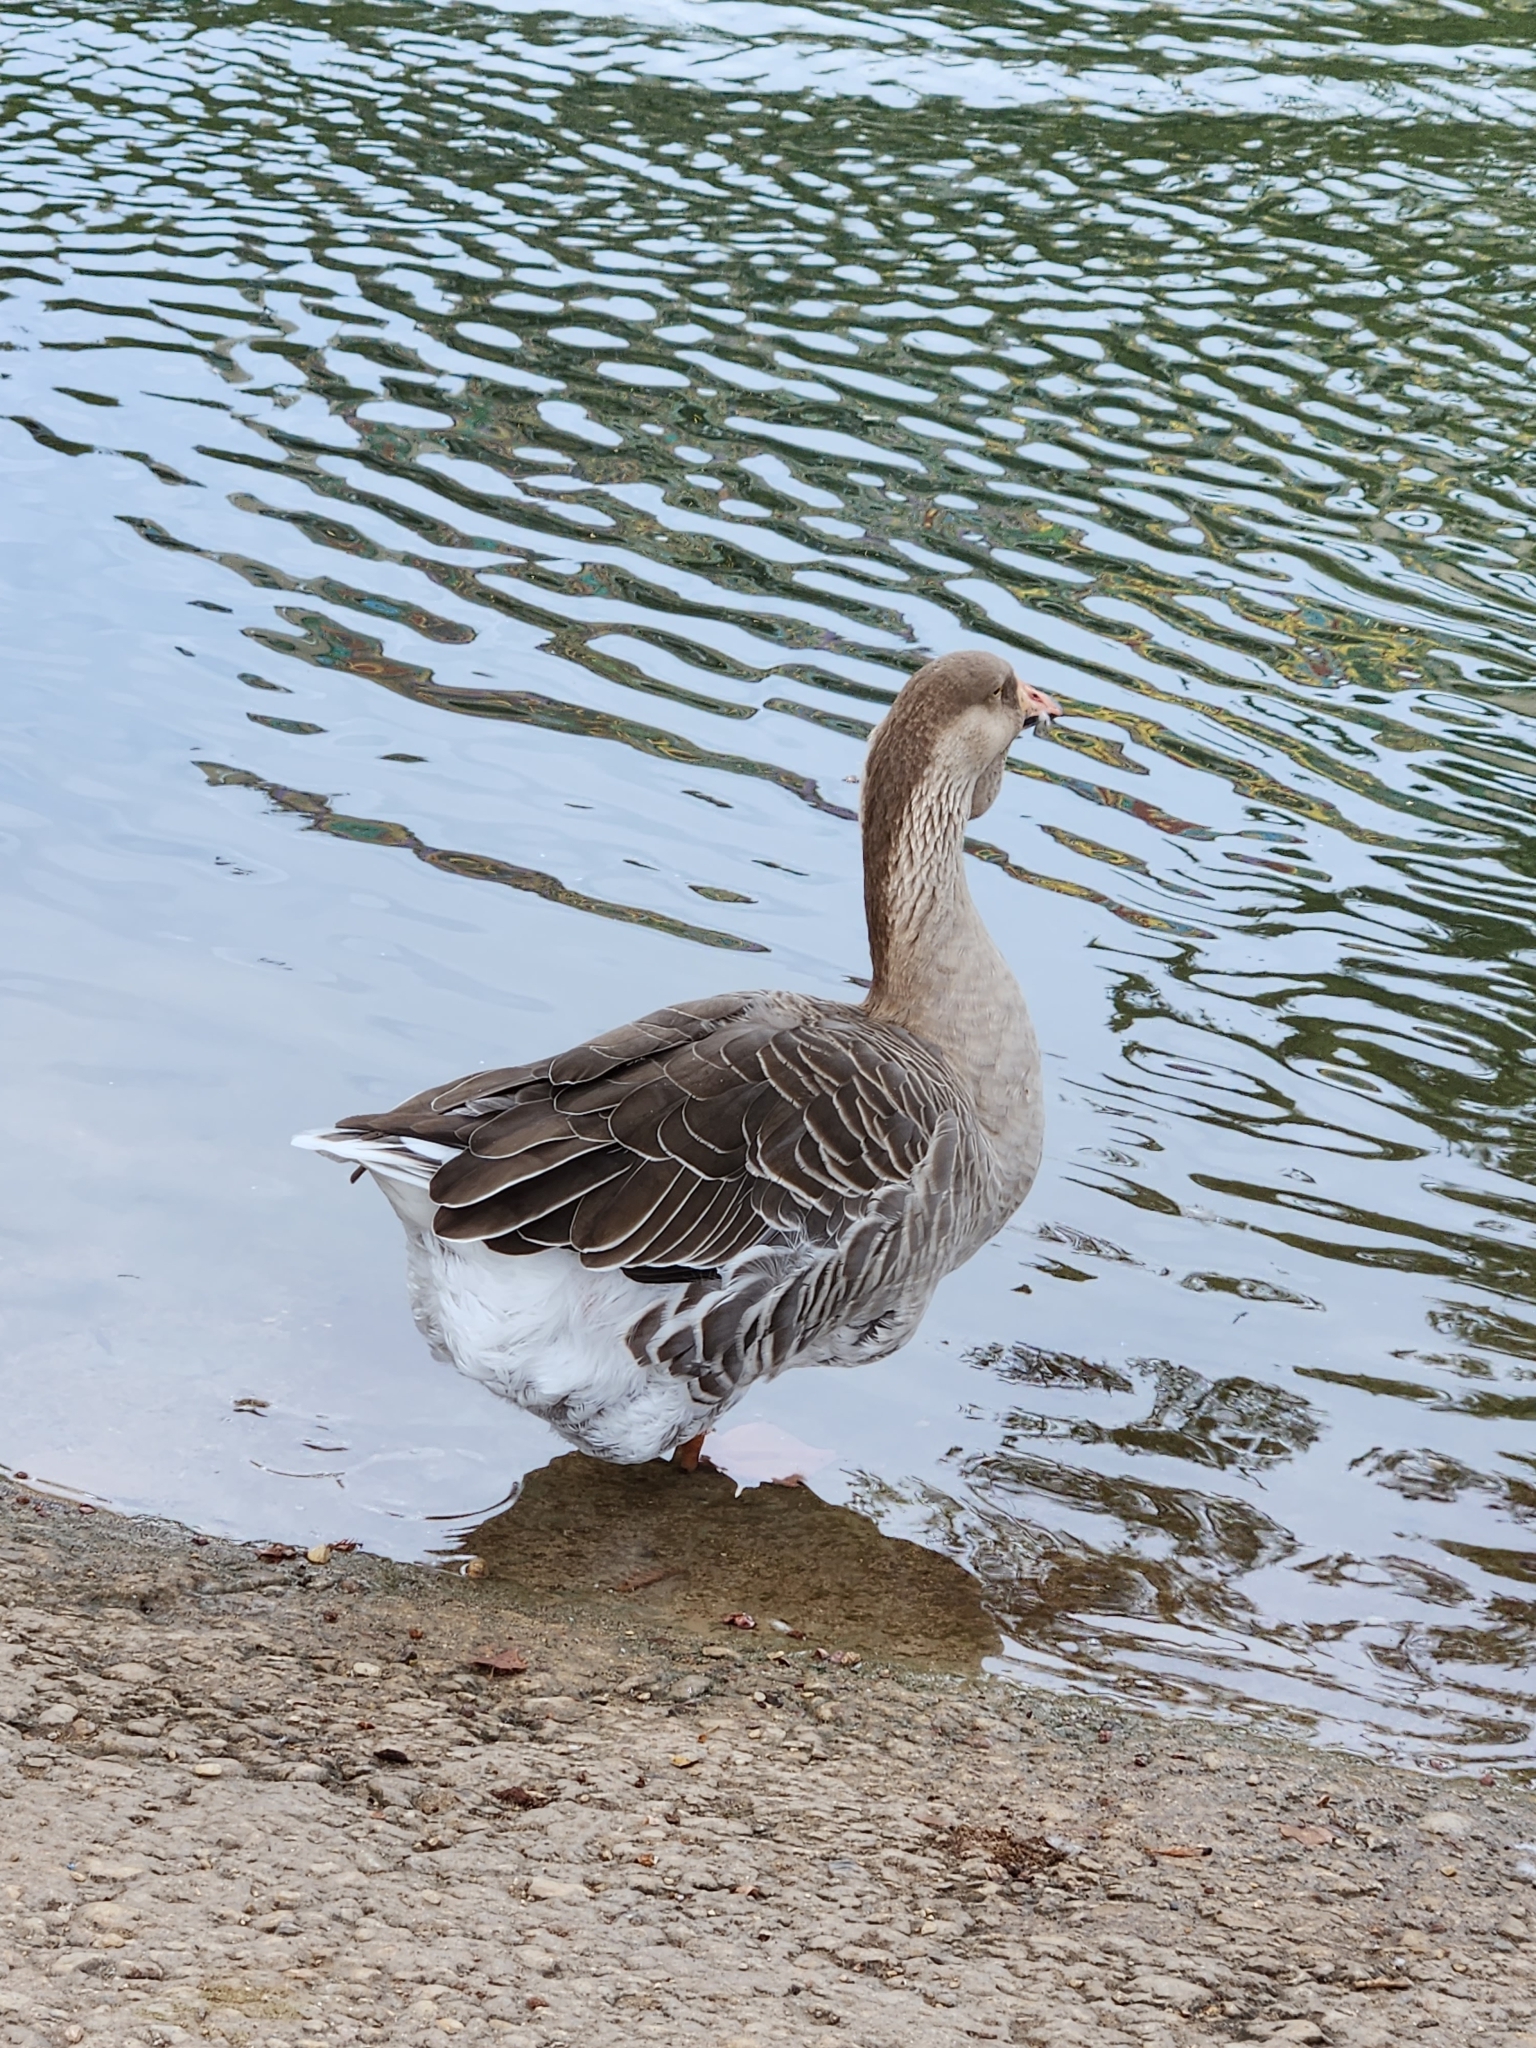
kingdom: Animalia
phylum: Chordata
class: Aves
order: Anseriformes
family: Anatidae
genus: Anser
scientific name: Anser
